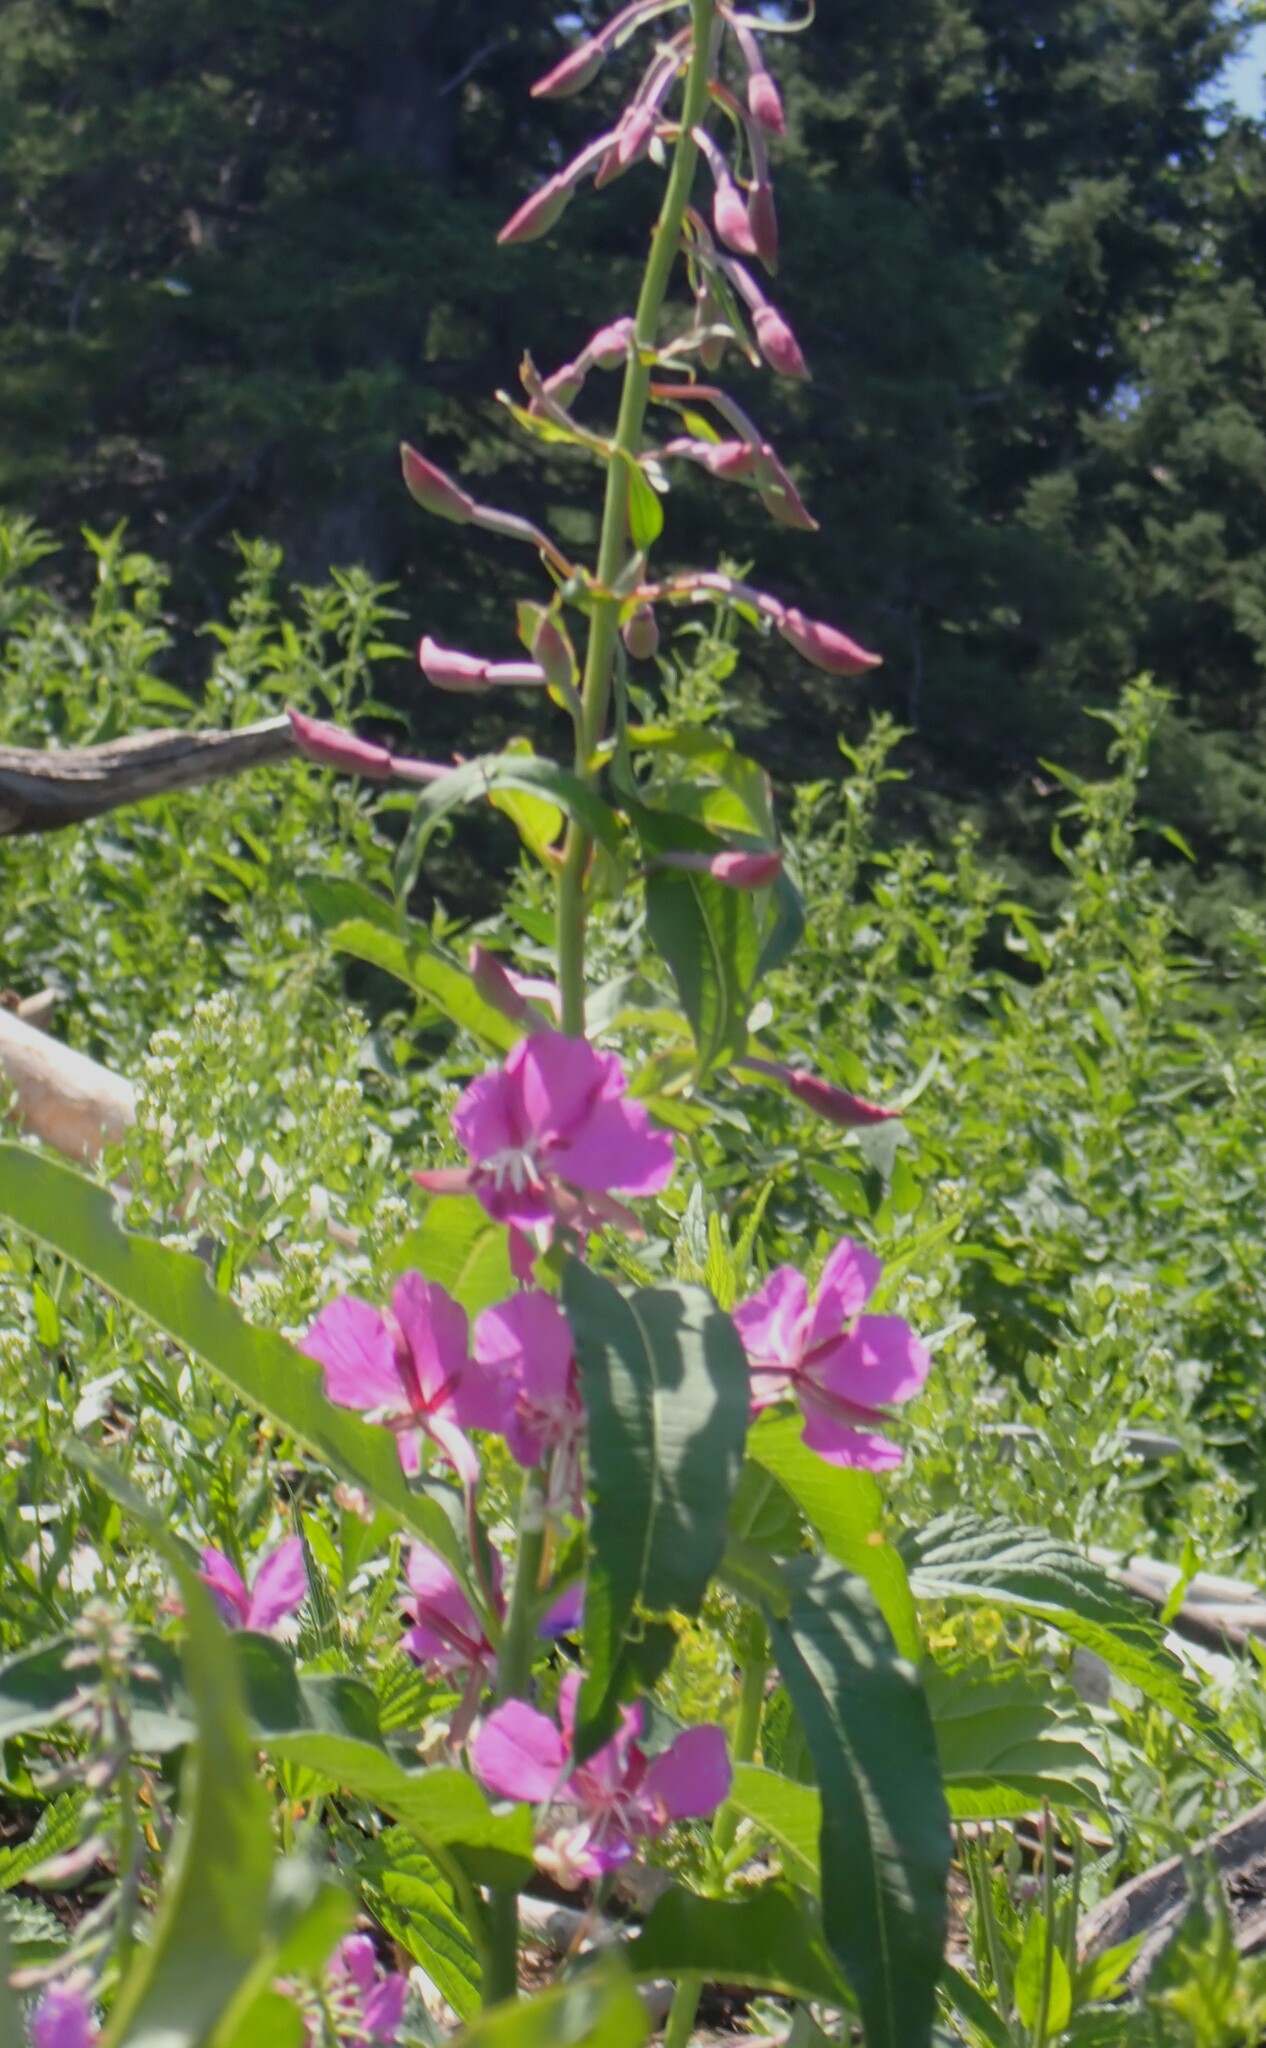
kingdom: Plantae
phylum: Tracheophyta
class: Magnoliopsida
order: Myrtales
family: Onagraceae
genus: Chamaenerion
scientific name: Chamaenerion angustifolium
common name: Fireweed
